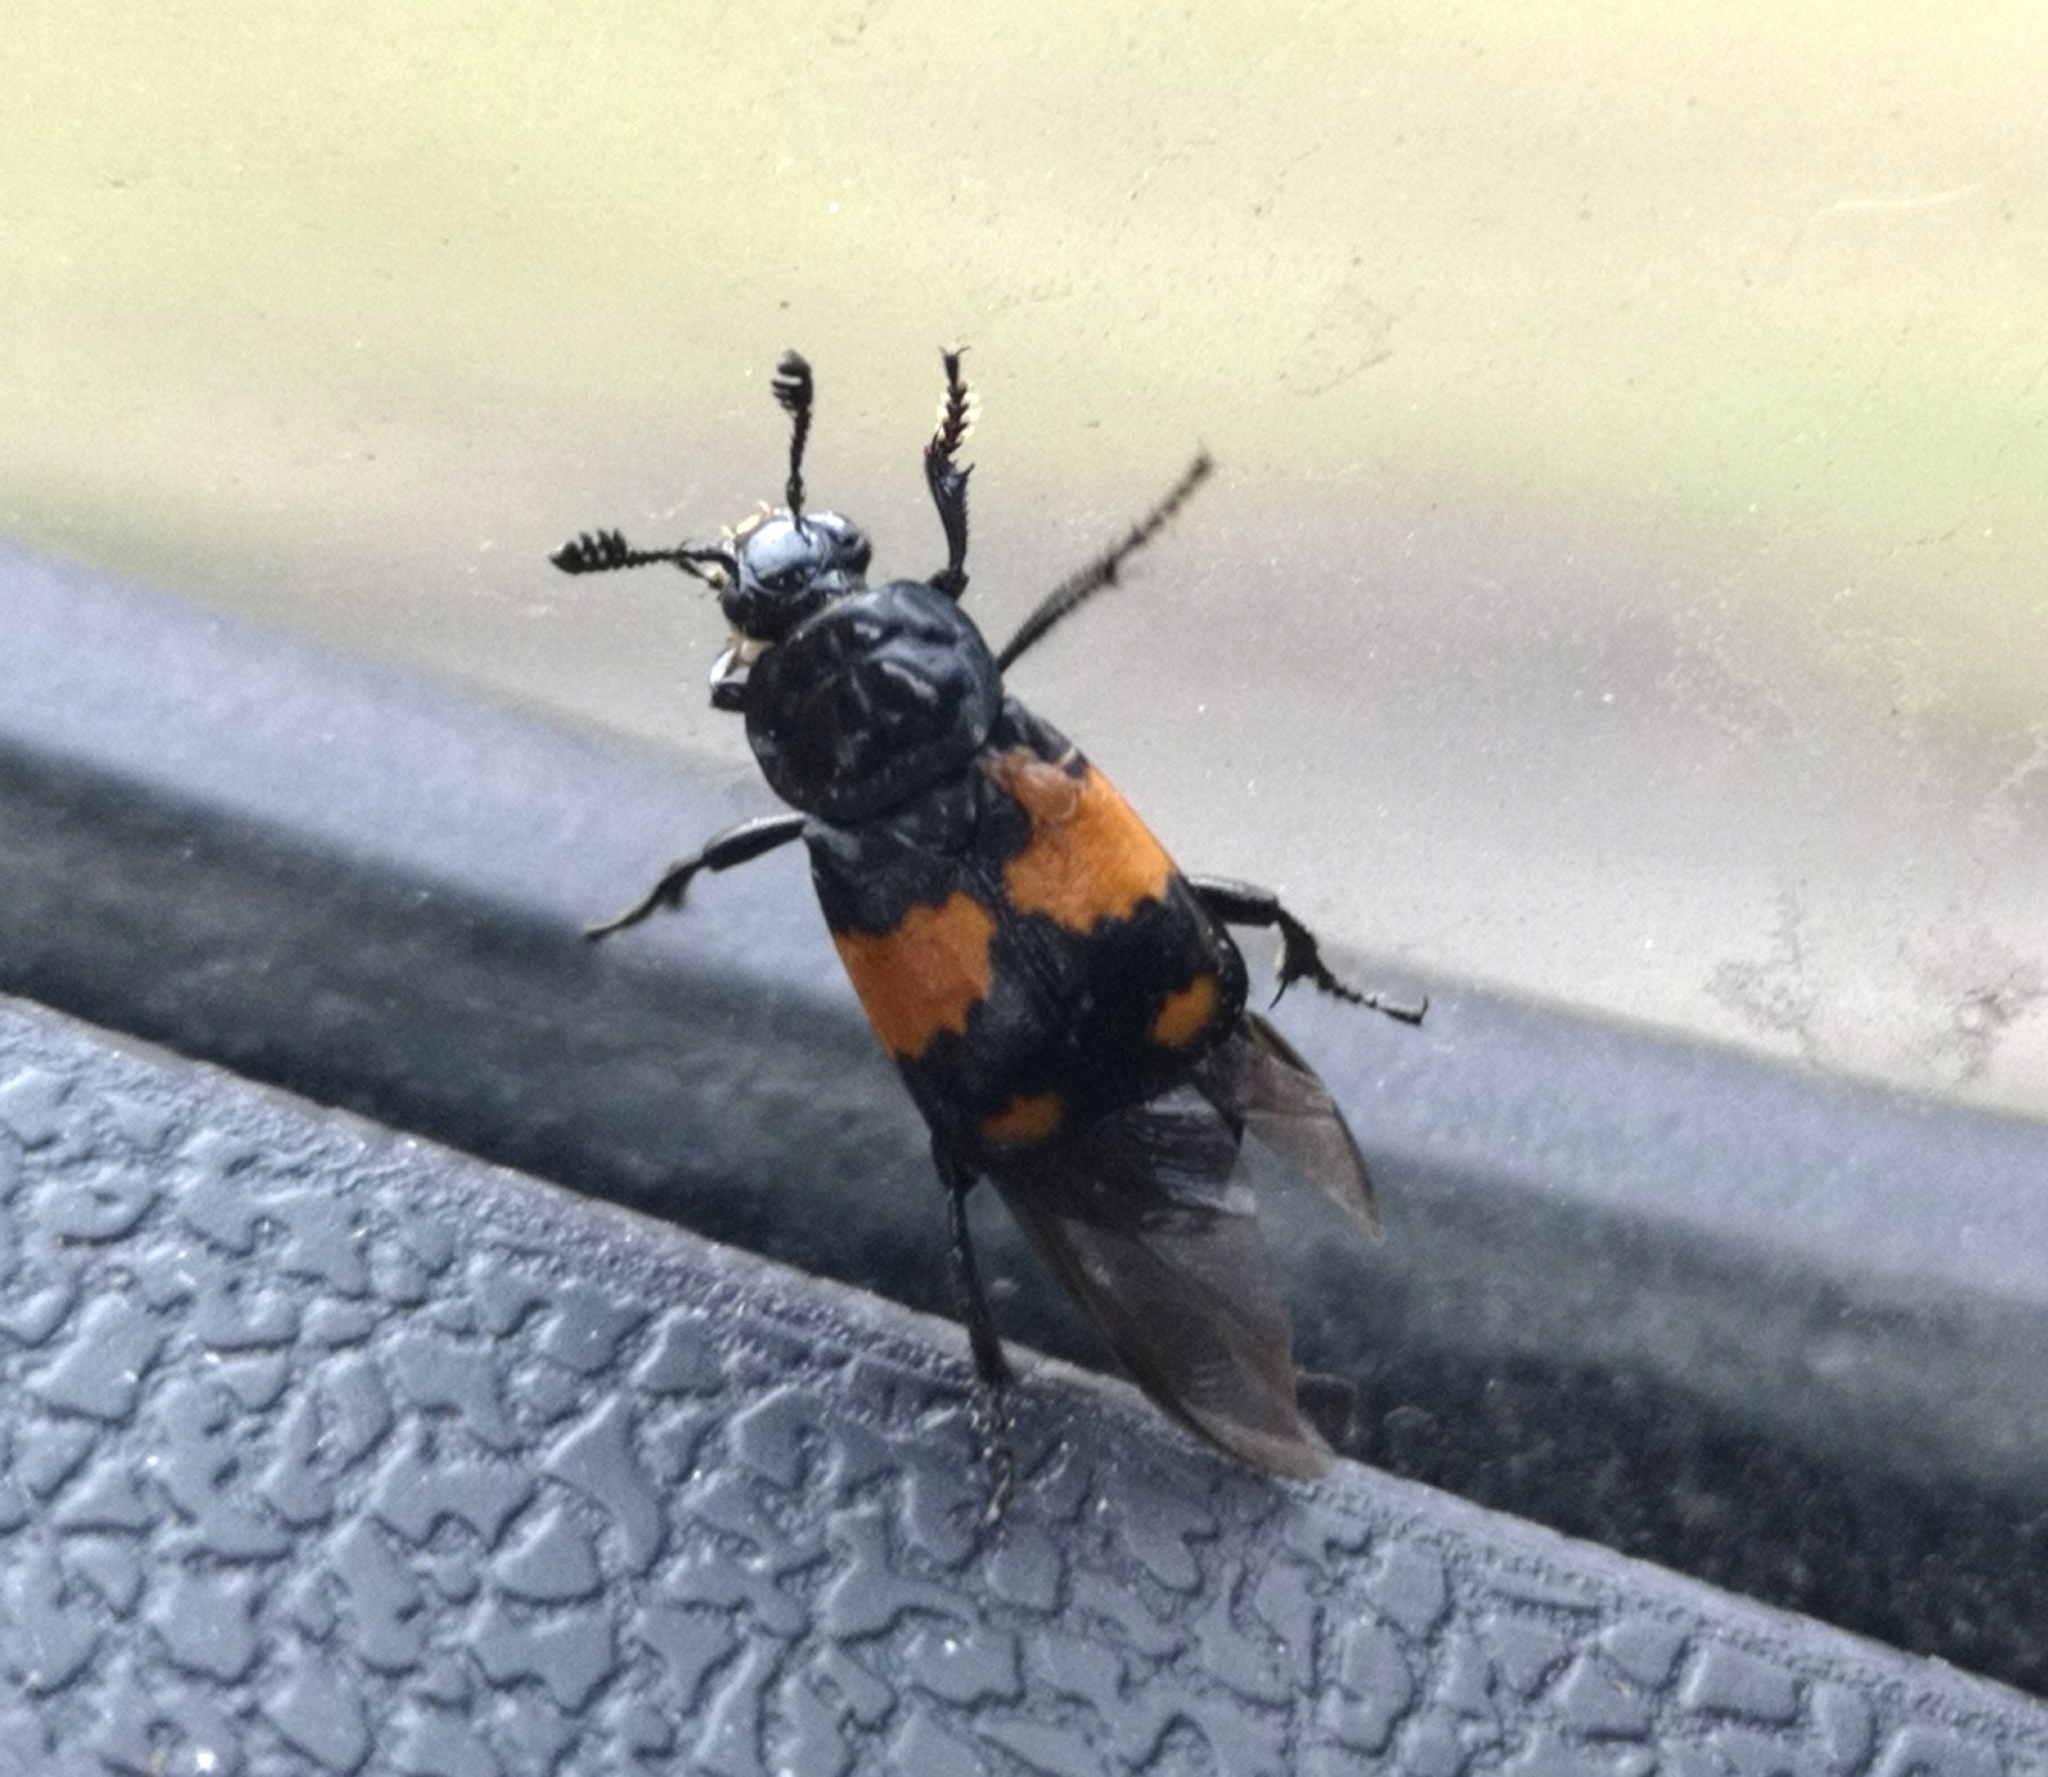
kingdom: Animalia
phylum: Arthropoda
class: Insecta
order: Coleoptera
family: Staphylinidae
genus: Nicrophorus
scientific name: Nicrophorus vespilloides
